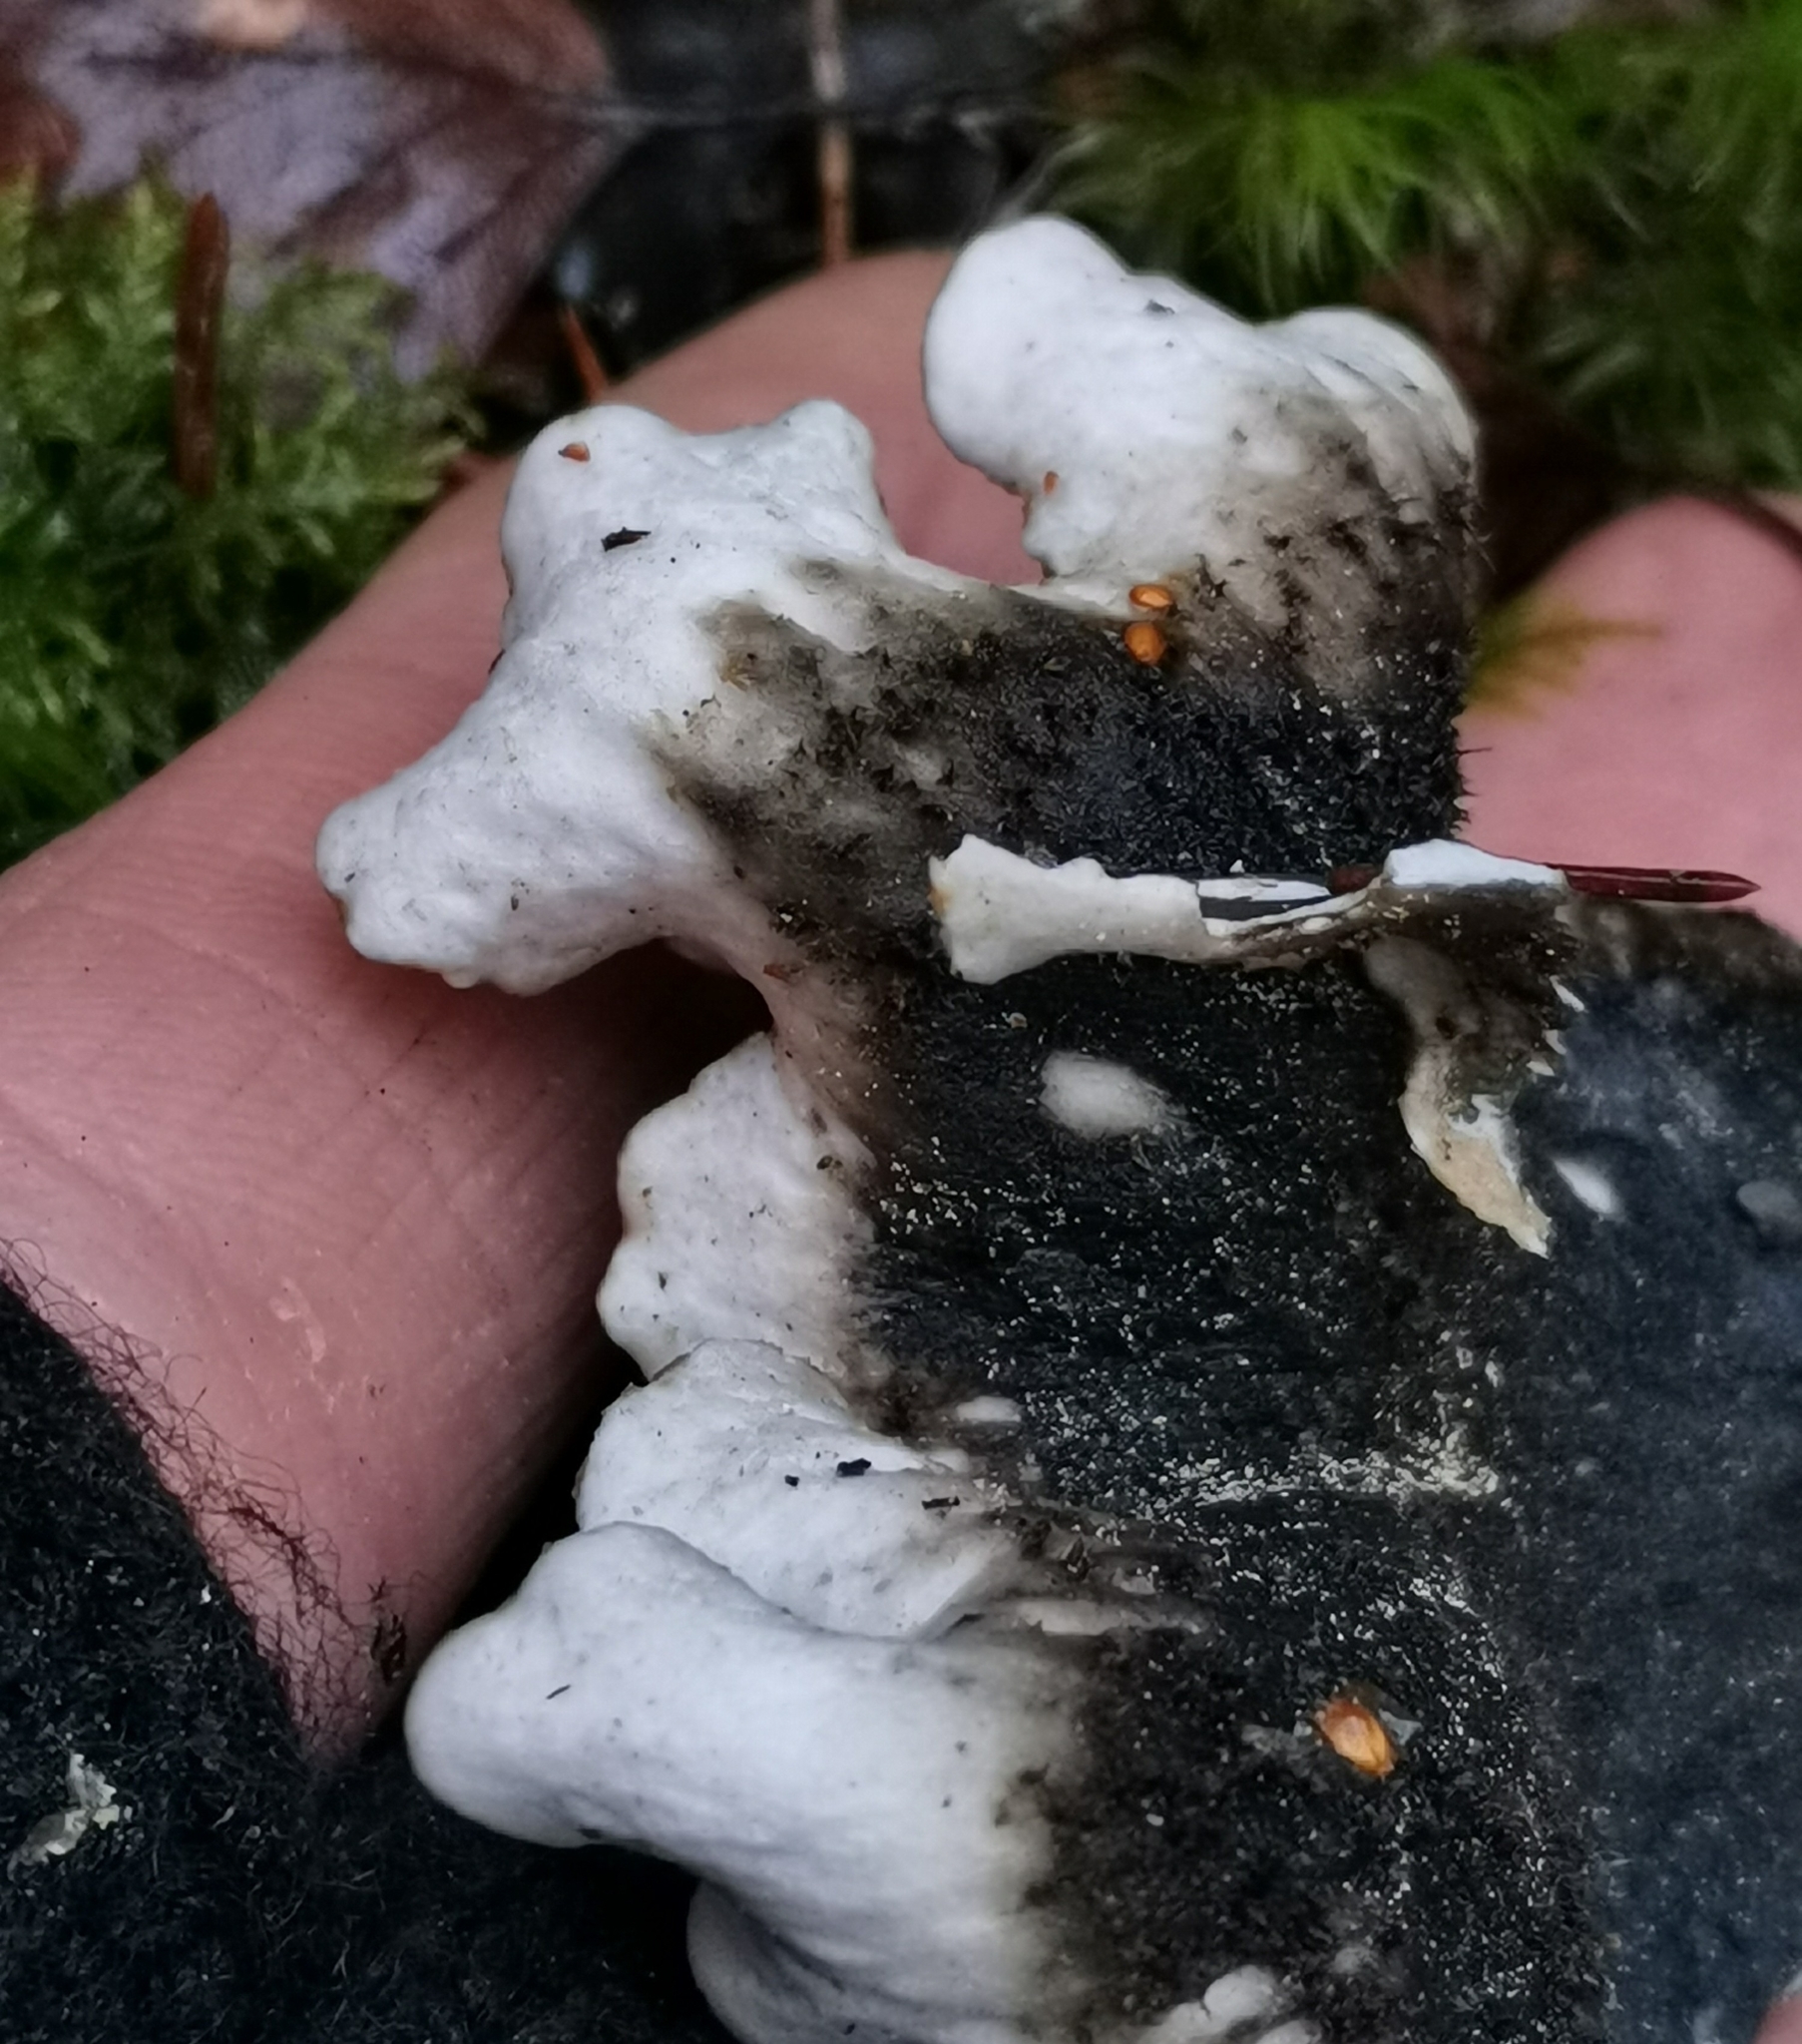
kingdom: Fungi
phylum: Ascomycota
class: Lecanoromycetes
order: Peltigerales
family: Peltigeraceae
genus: Peltigera
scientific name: Peltigera neckeri
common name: Blacksaddle pelt lichen
